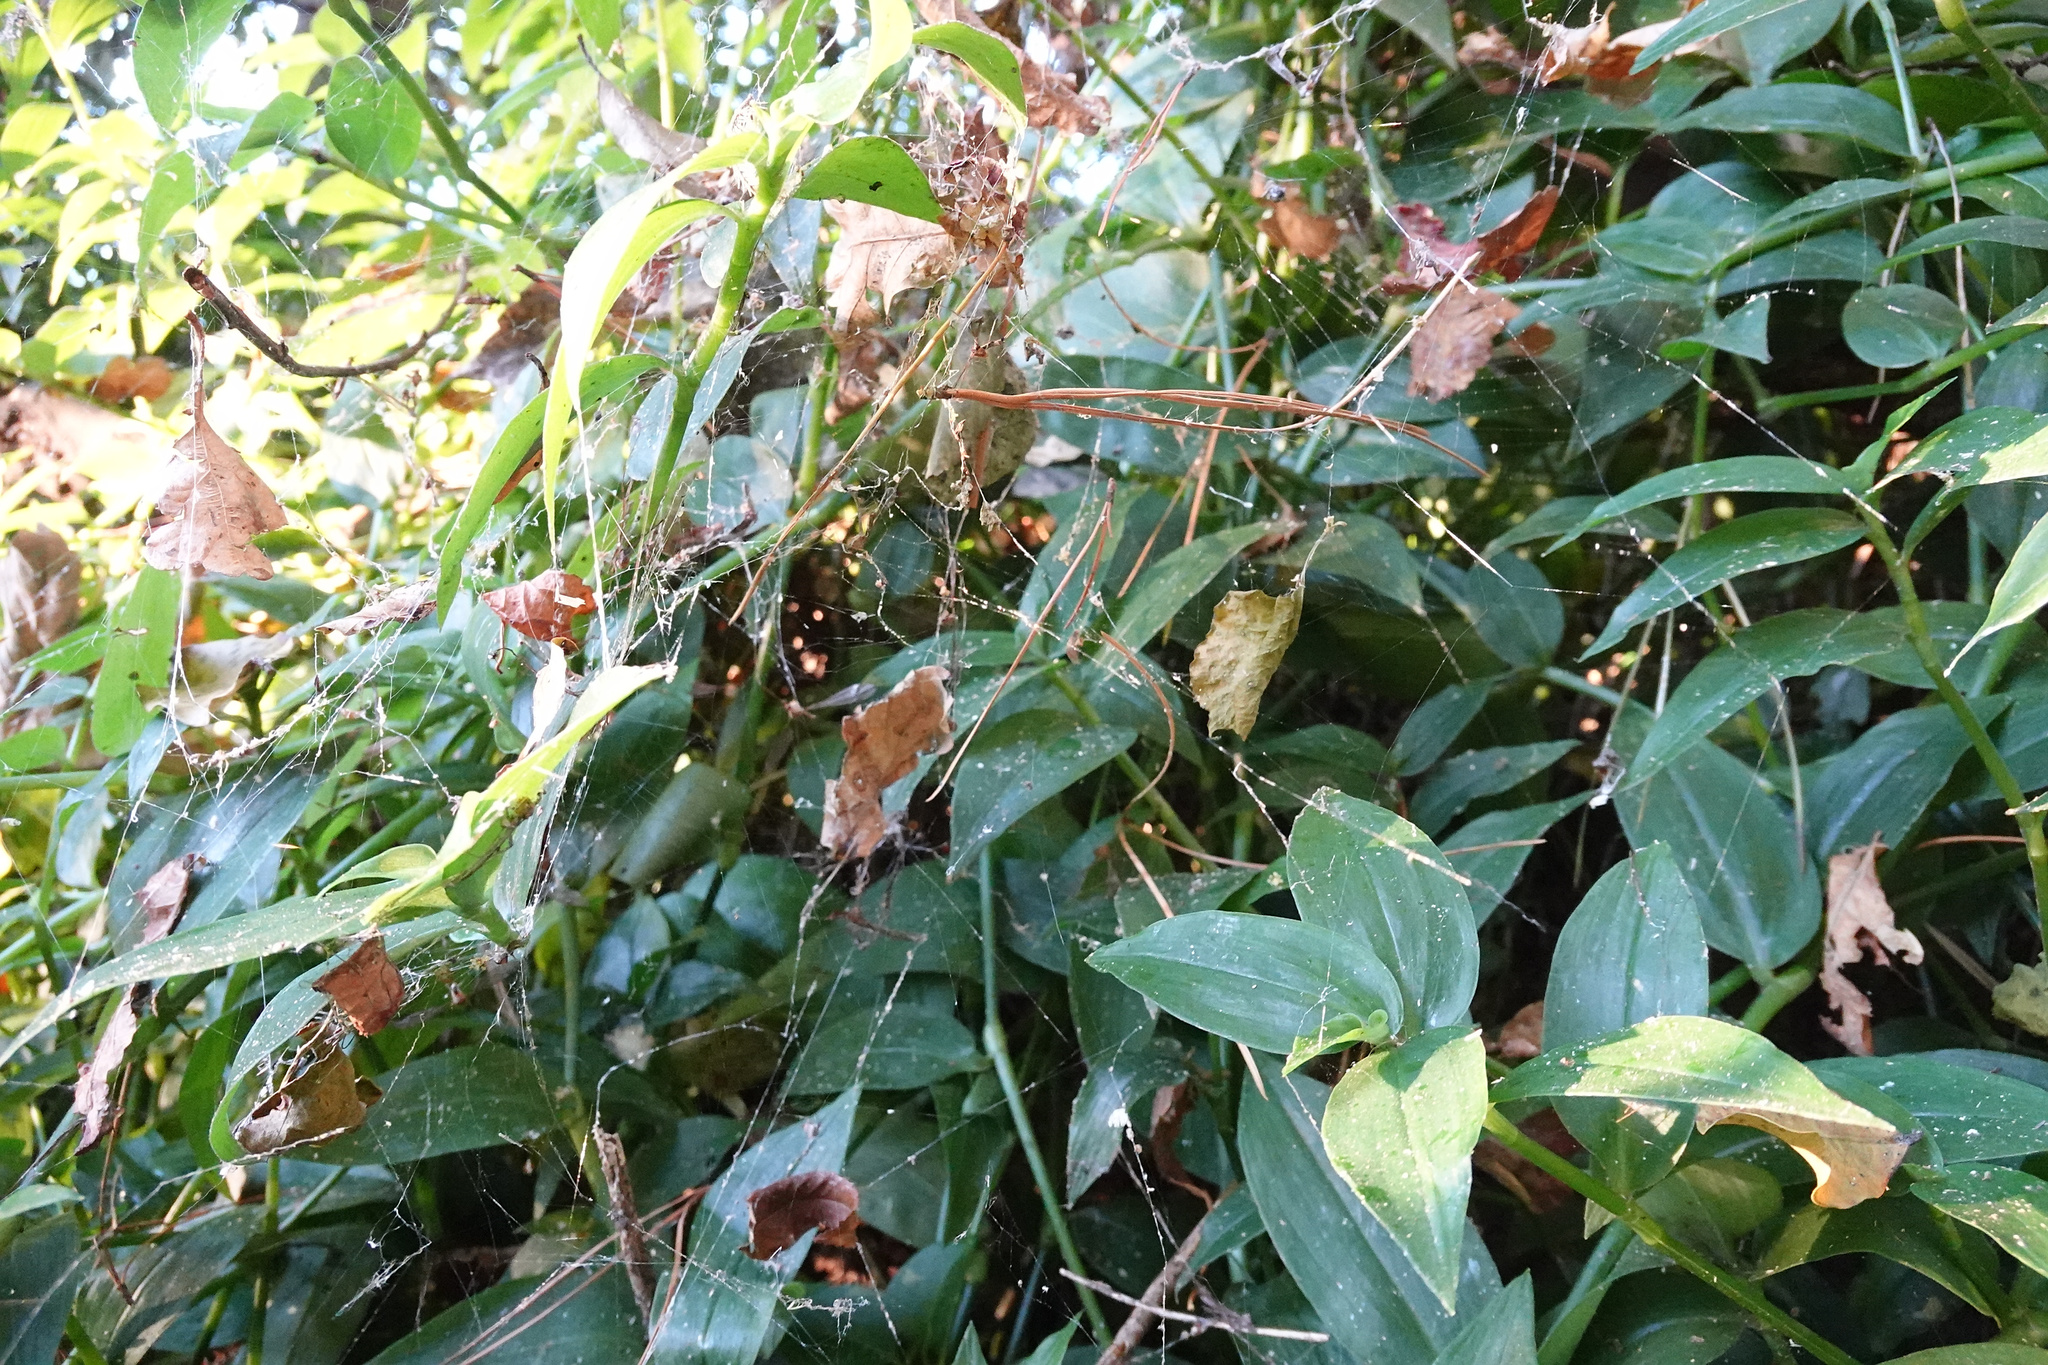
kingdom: Animalia
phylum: Arthropoda
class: Arachnida
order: Araneae
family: Uloboridae
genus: Philoponella
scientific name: Philoponella congregabilis
